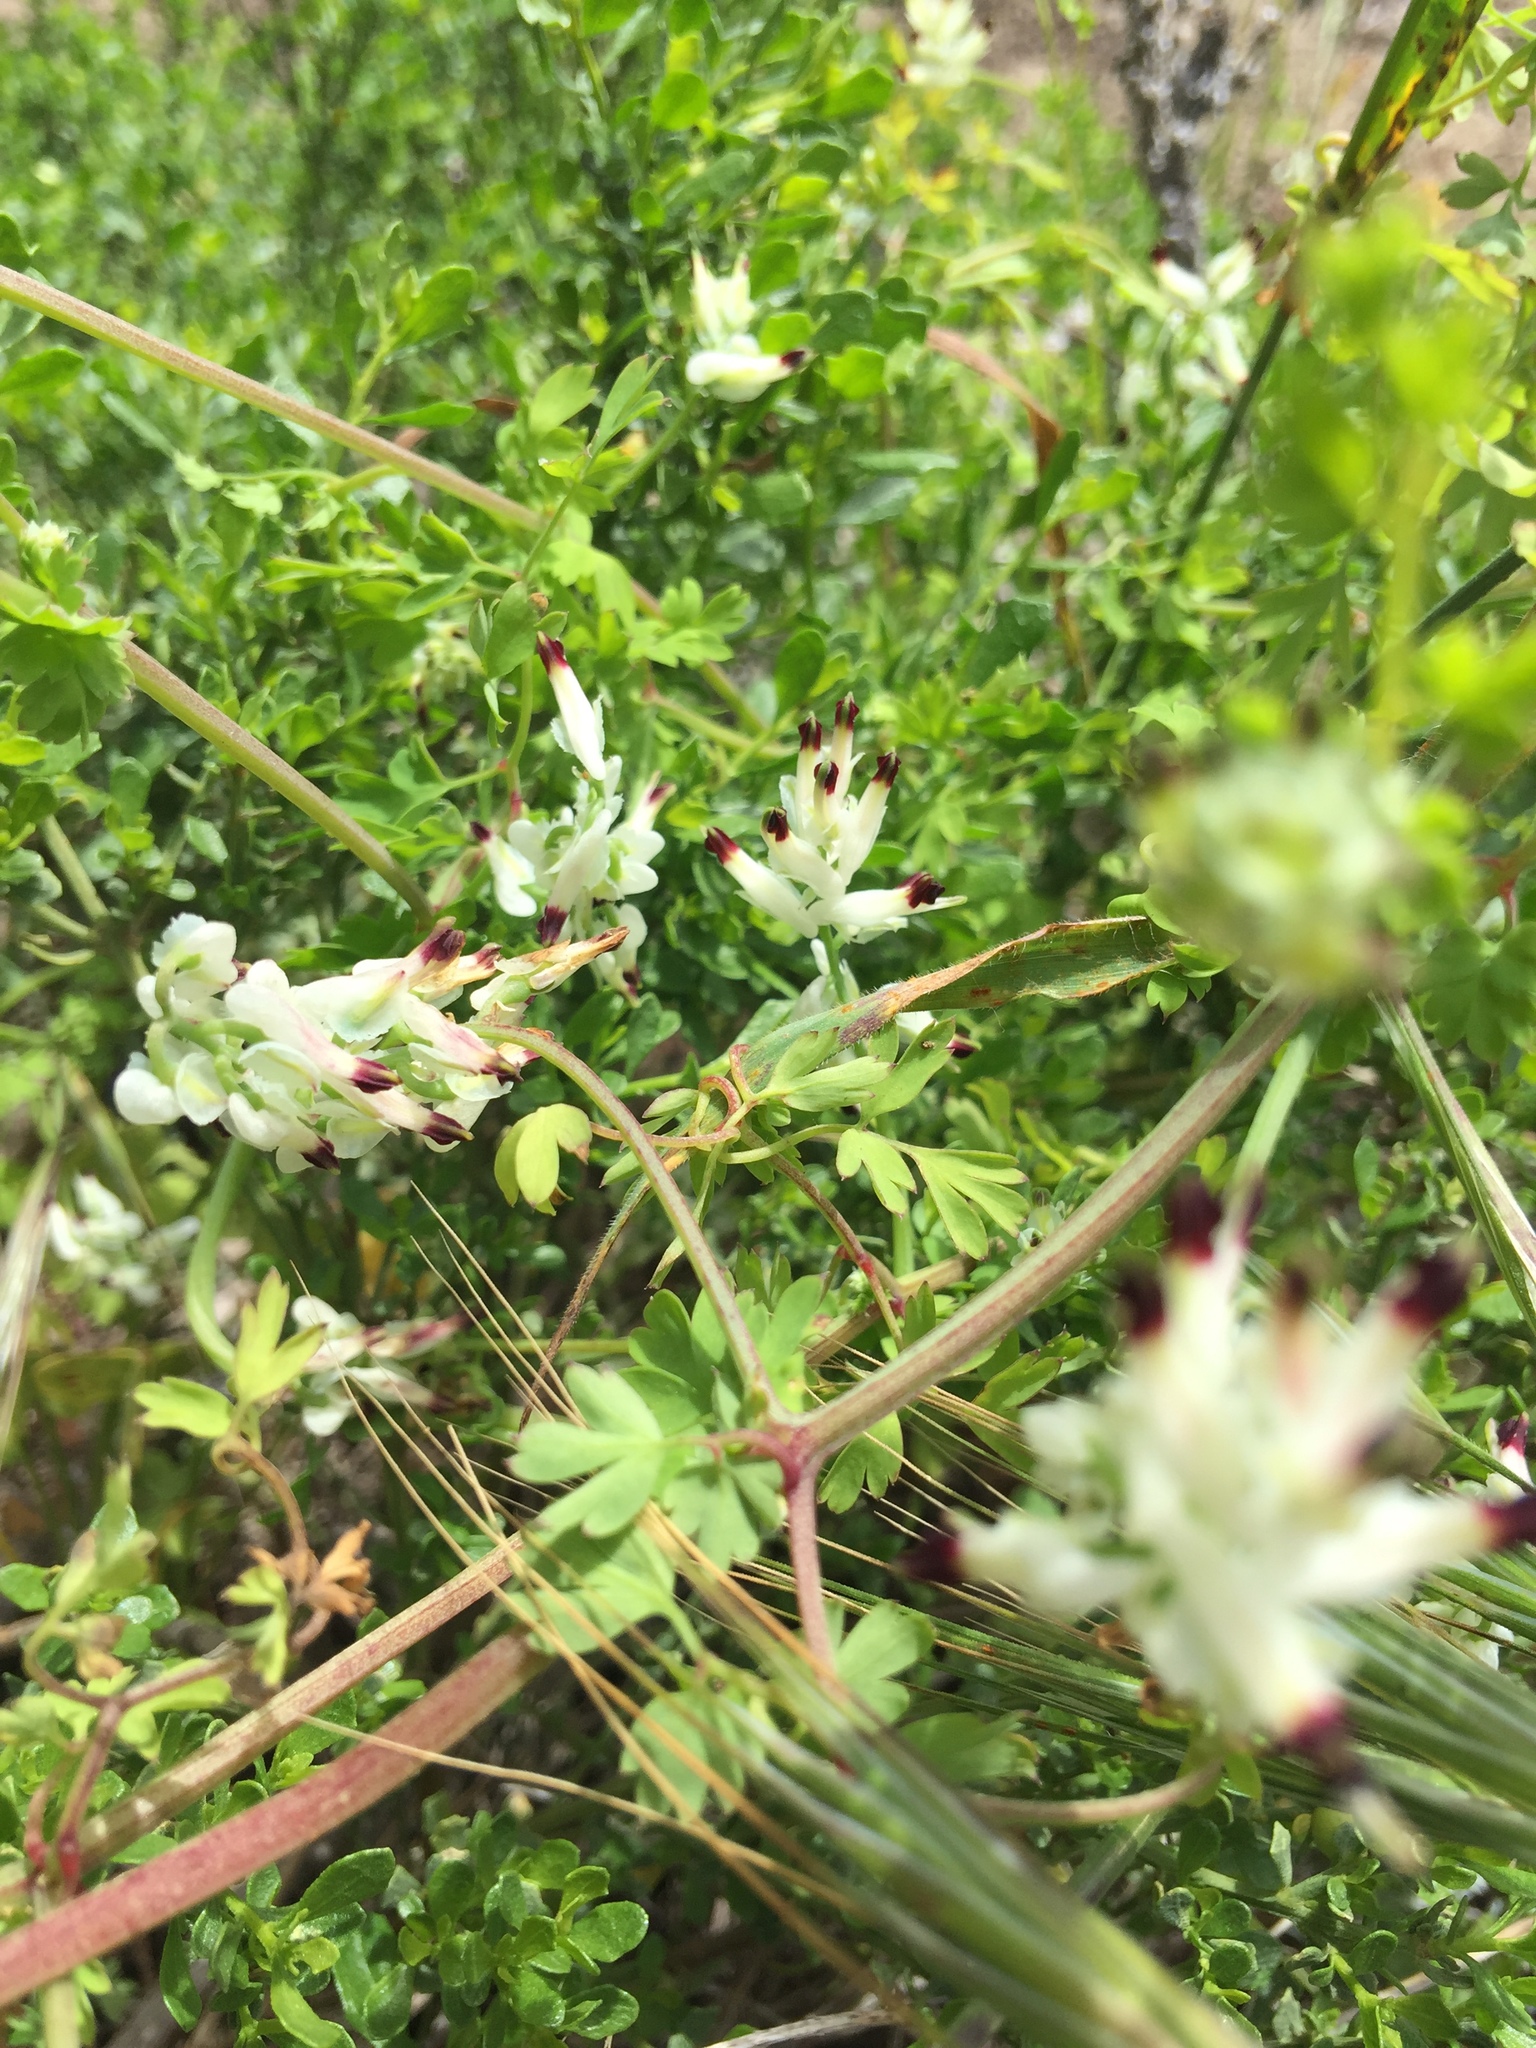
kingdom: Plantae
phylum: Tracheophyta
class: Magnoliopsida
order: Ranunculales
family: Papaveraceae
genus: Fumaria
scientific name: Fumaria capreolata
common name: White ramping-fumitory
